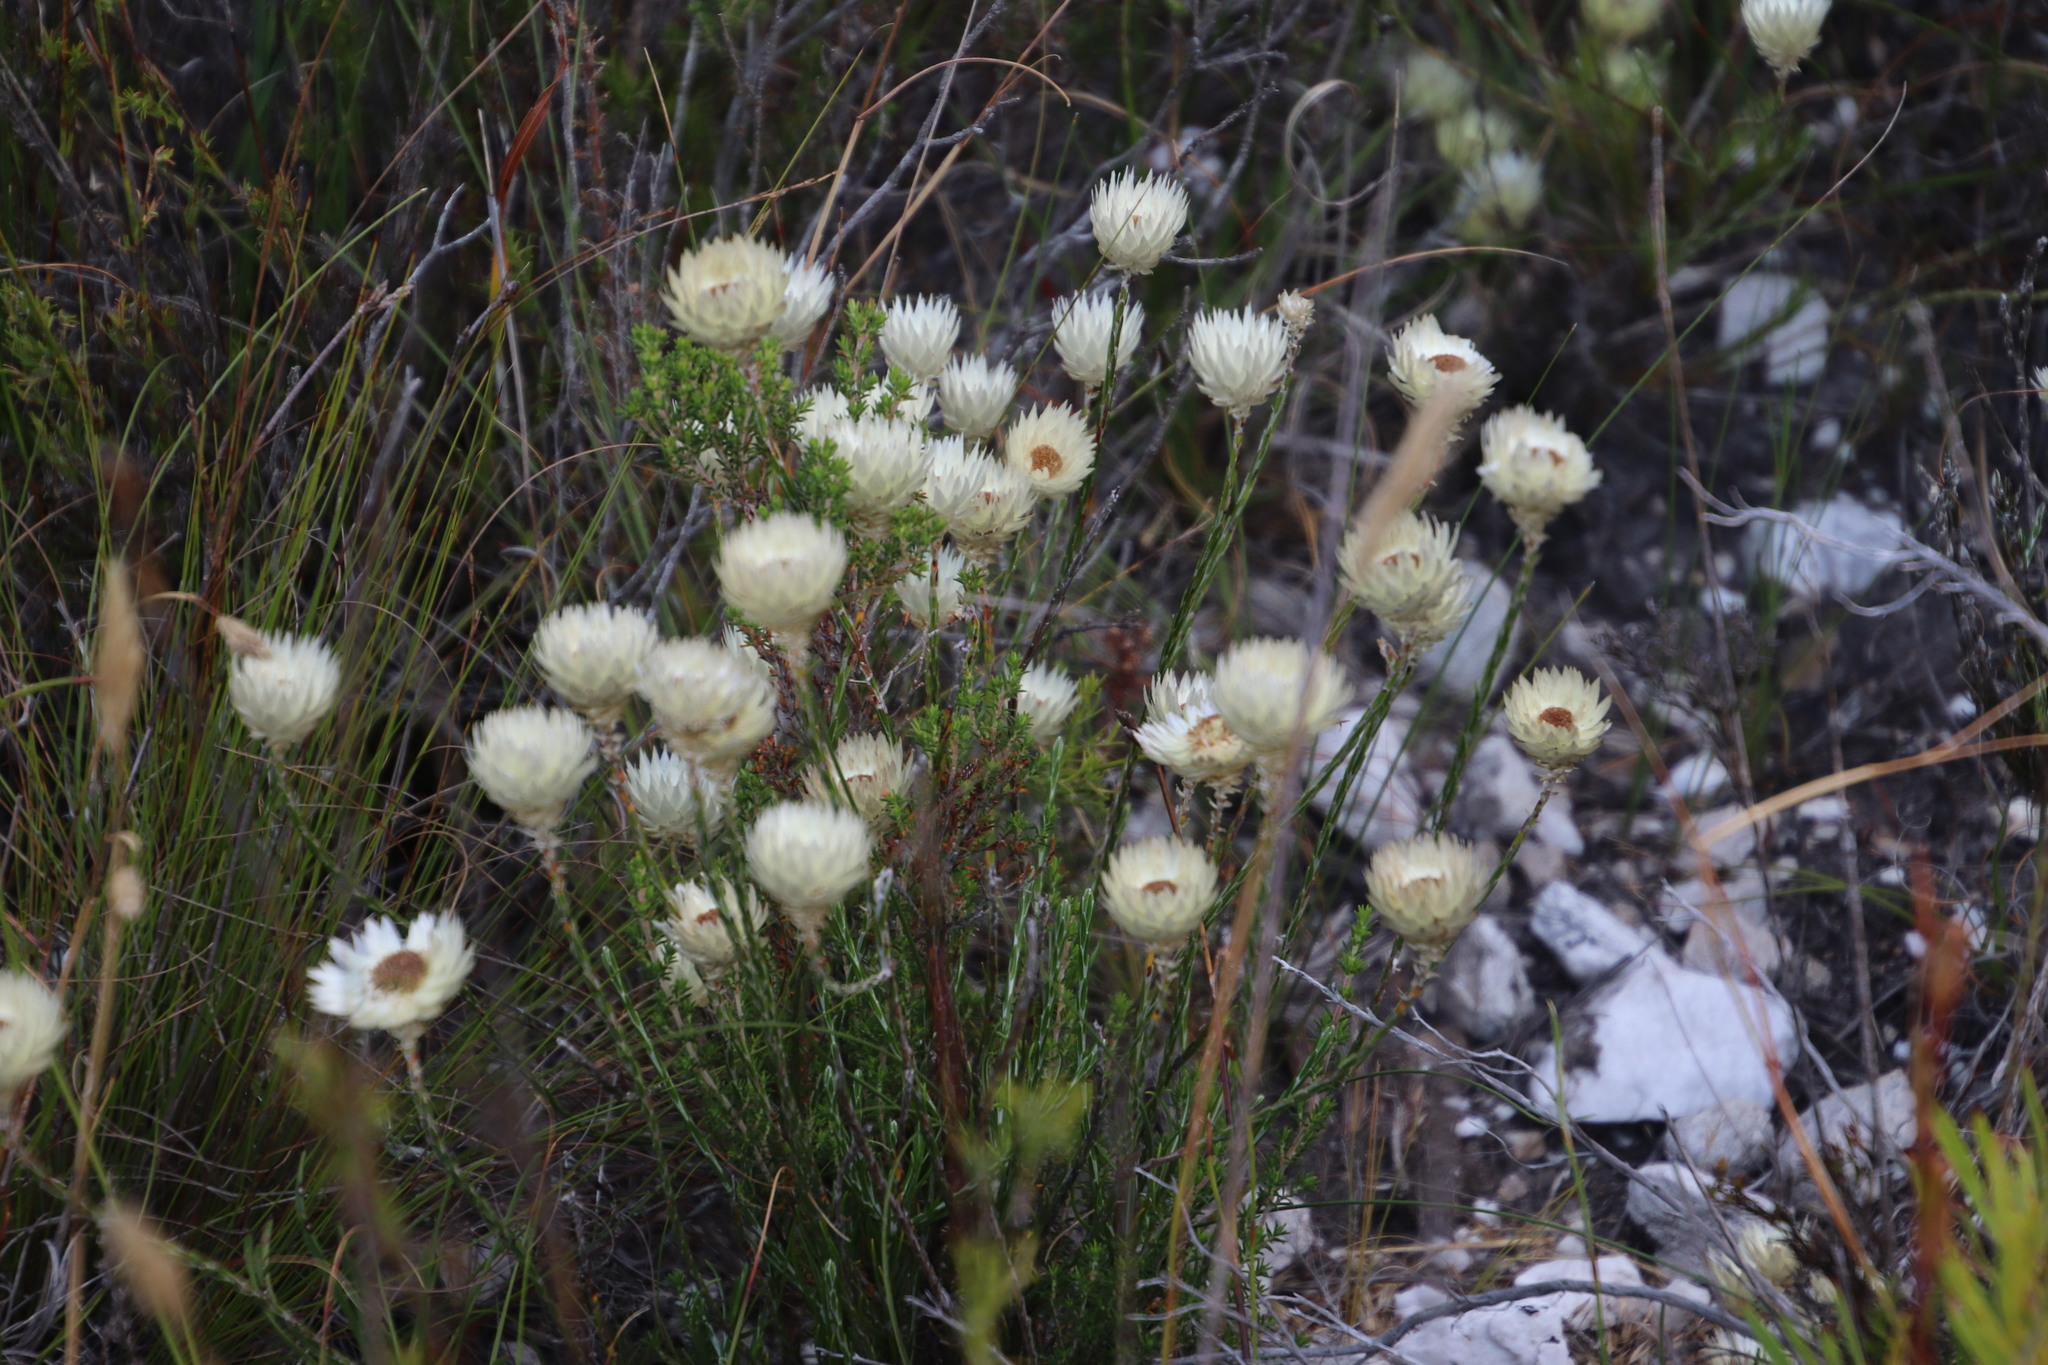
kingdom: Plantae
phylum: Tracheophyta
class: Magnoliopsida
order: Asterales
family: Asteraceae
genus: Edmondia
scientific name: Edmondia sesamoides
